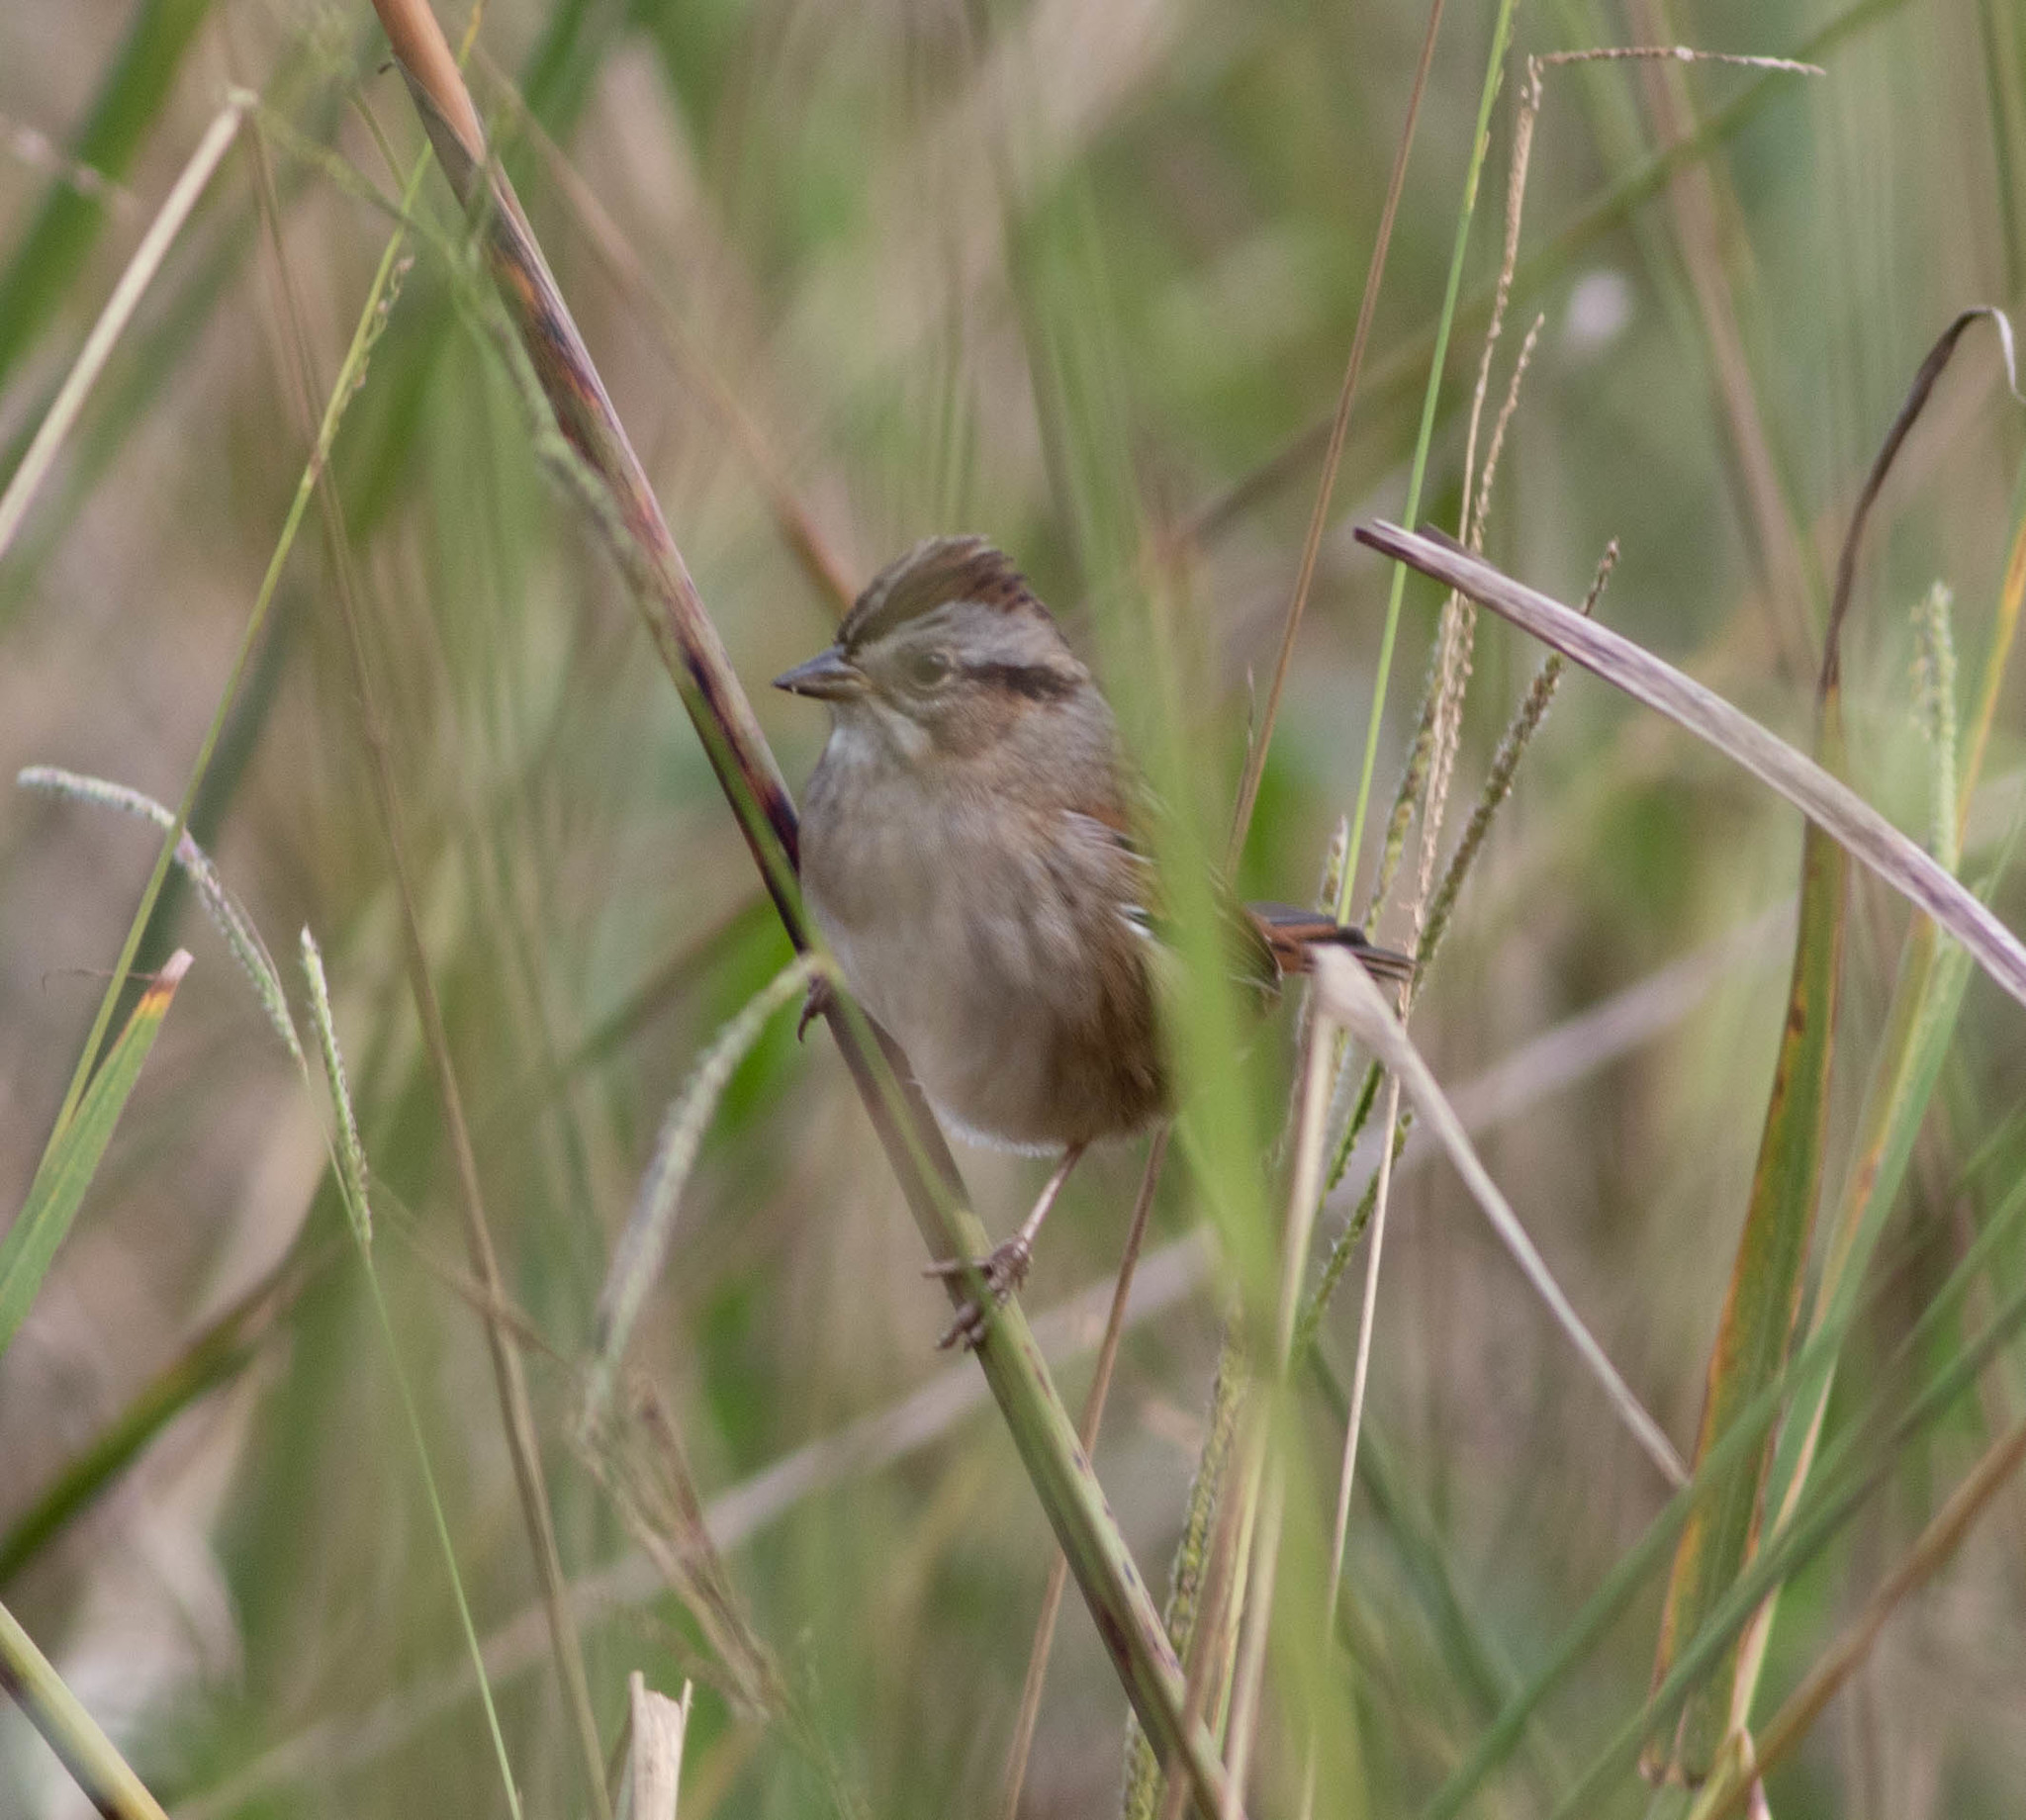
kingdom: Animalia
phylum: Chordata
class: Aves
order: Passeriformes
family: Passerellidae
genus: Melospiza
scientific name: Melospiza georgiana
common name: Swamp sparrow
